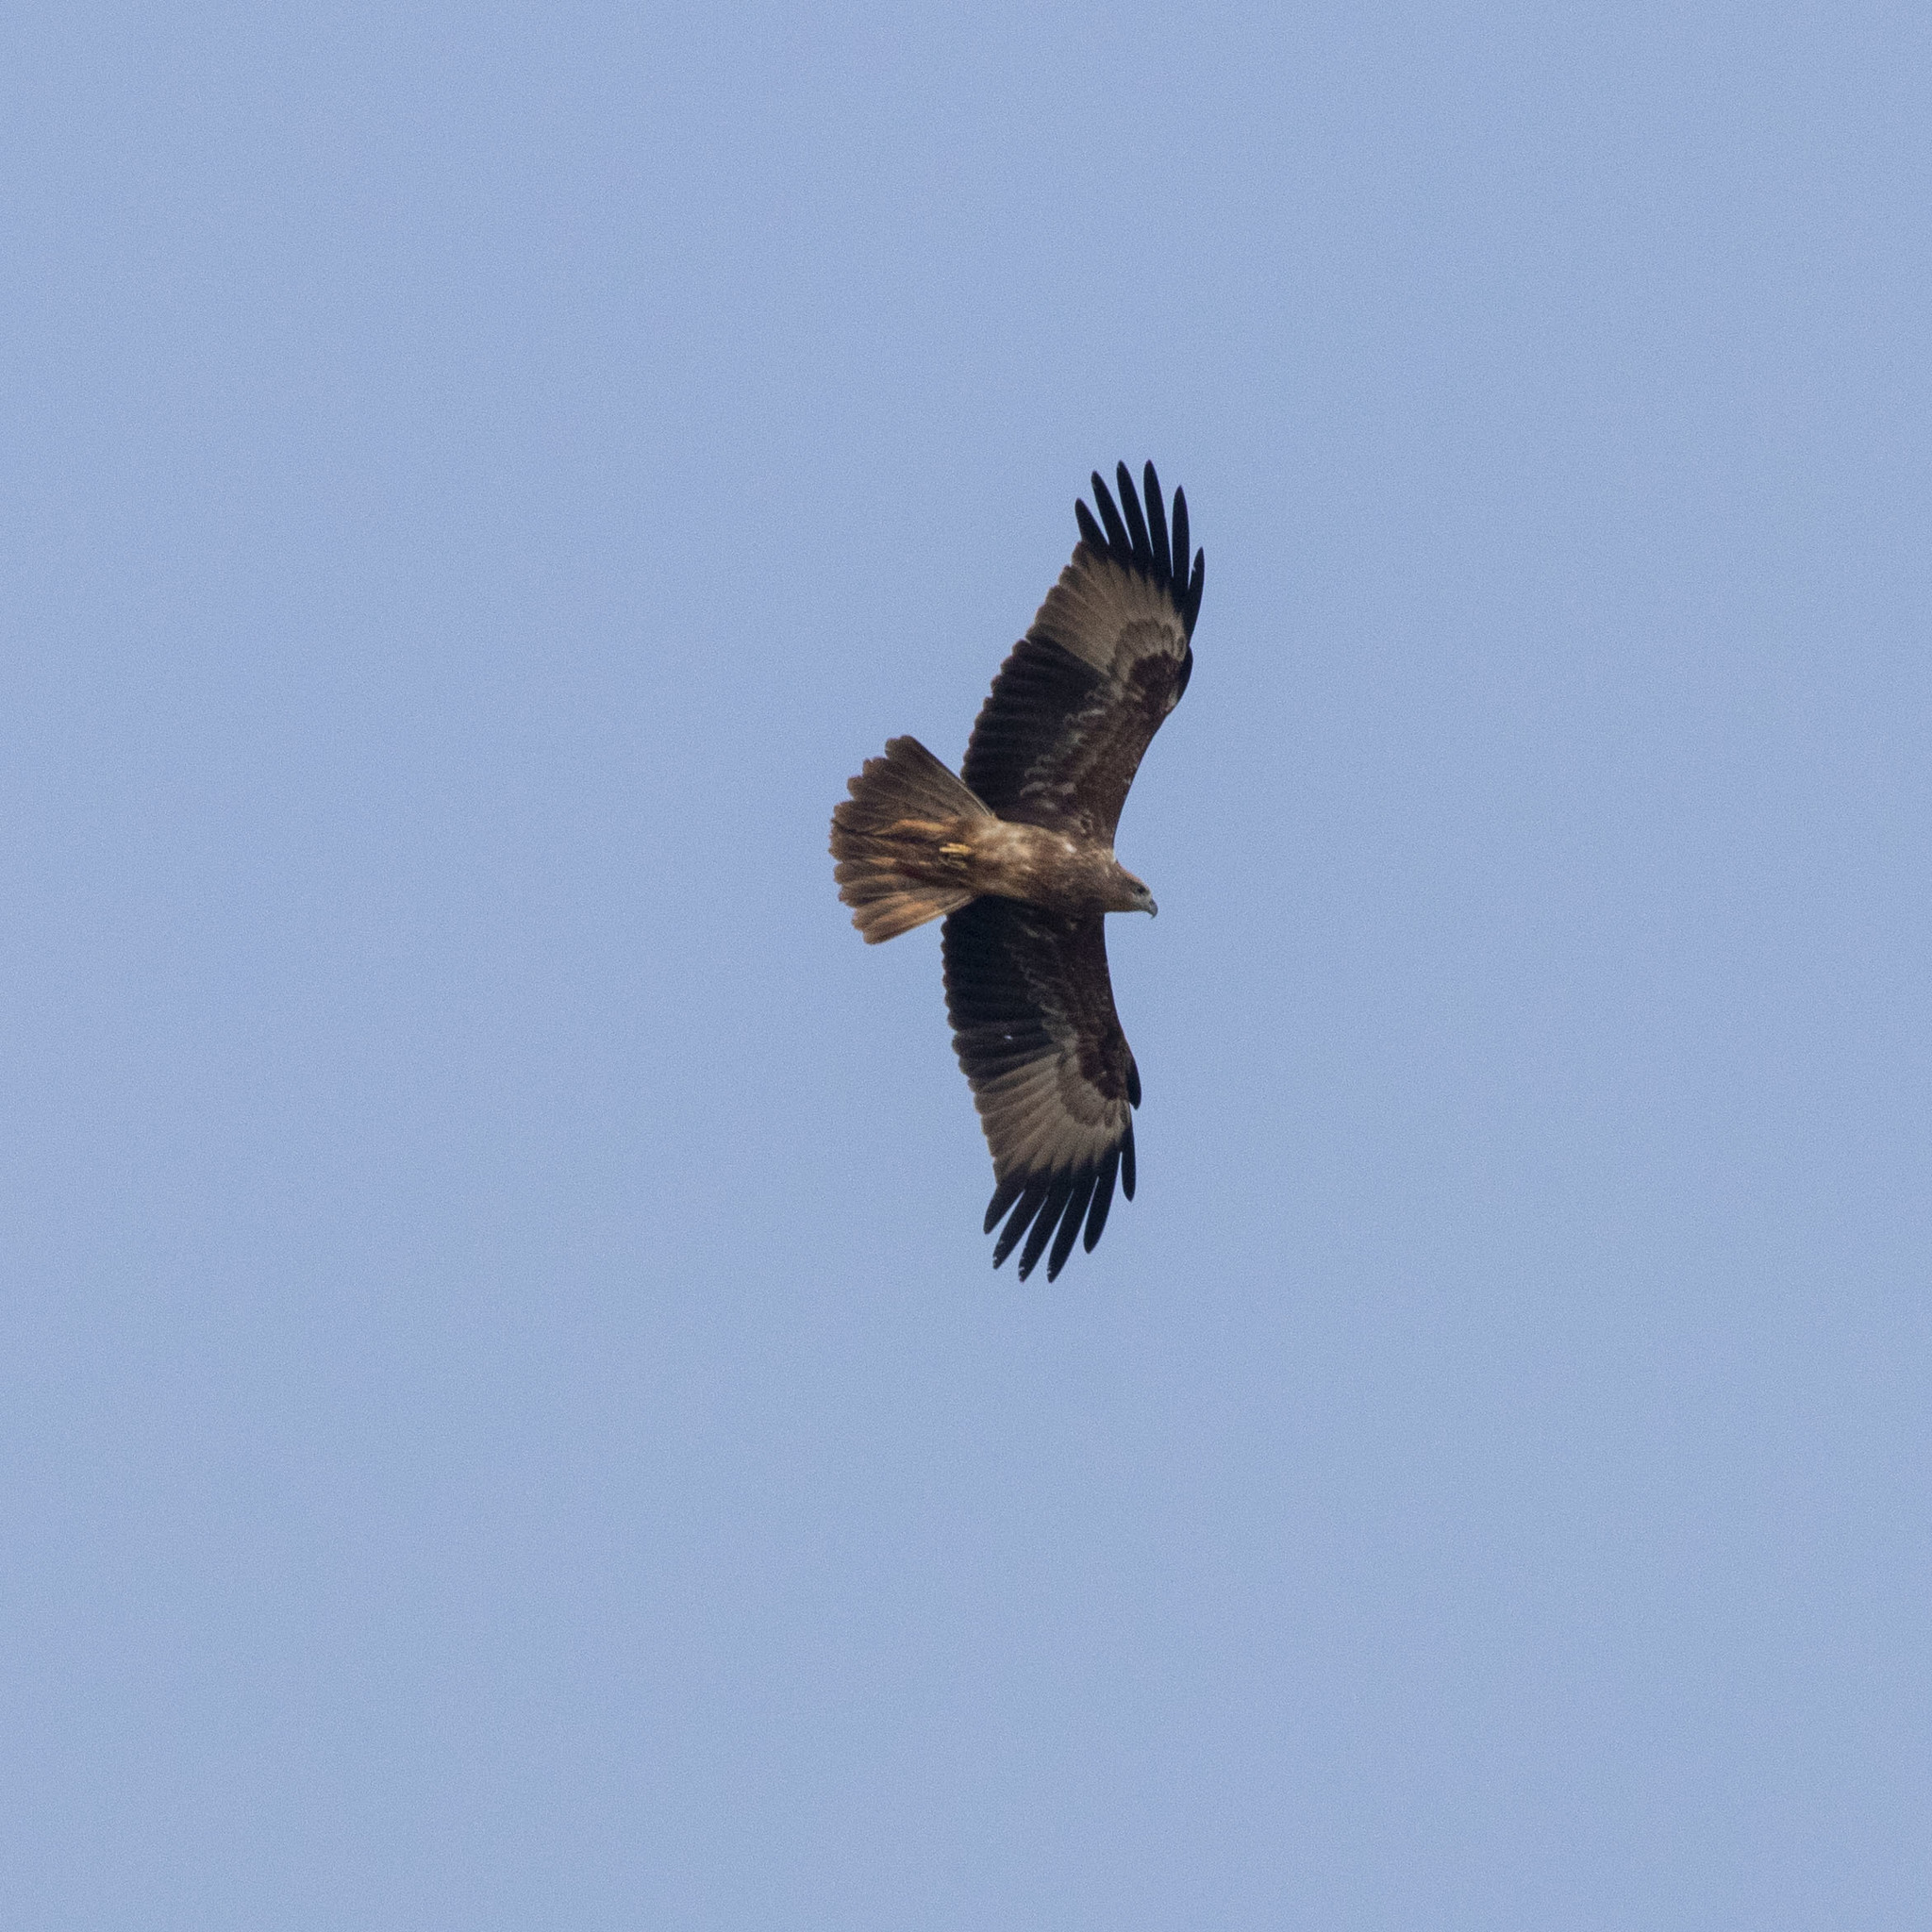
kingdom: Animalia
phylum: Chordata
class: Aves
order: Accipitriformes
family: Accipitridae
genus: Haliastur
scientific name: Haliastur indus
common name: Brahminy kite
